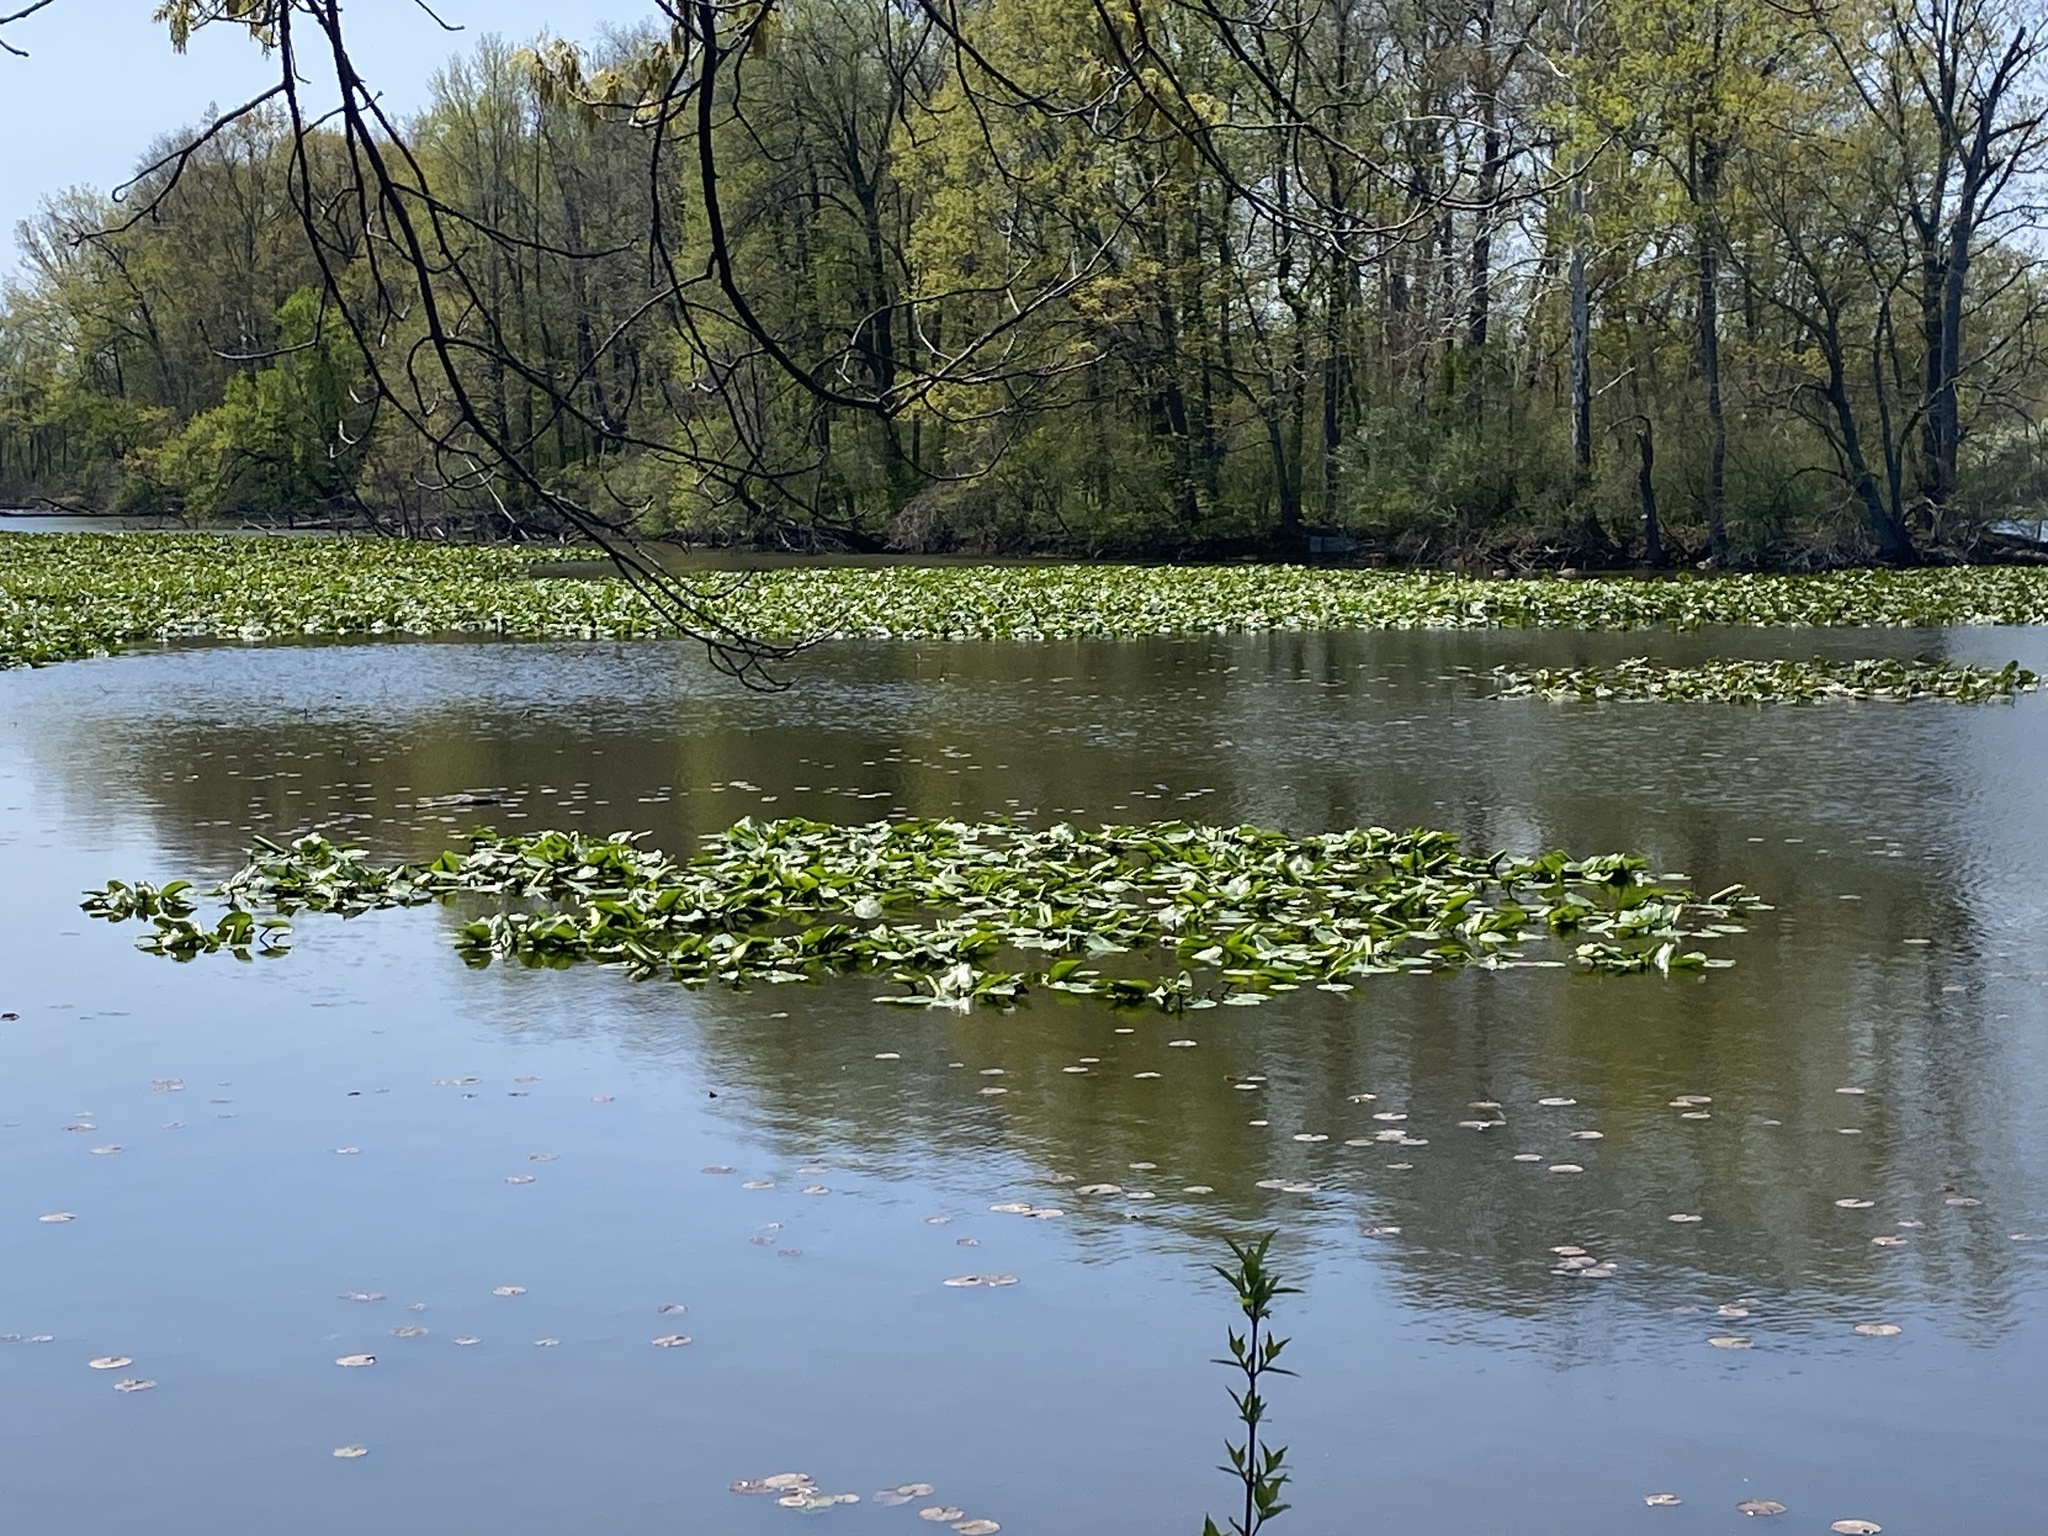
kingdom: Plantae
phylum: Tracheophyta
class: Magnoliopsida
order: Nymphaeales
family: Nymphaeaceae
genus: Nuphar
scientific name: Nuphar advena
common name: Spatter-dock
